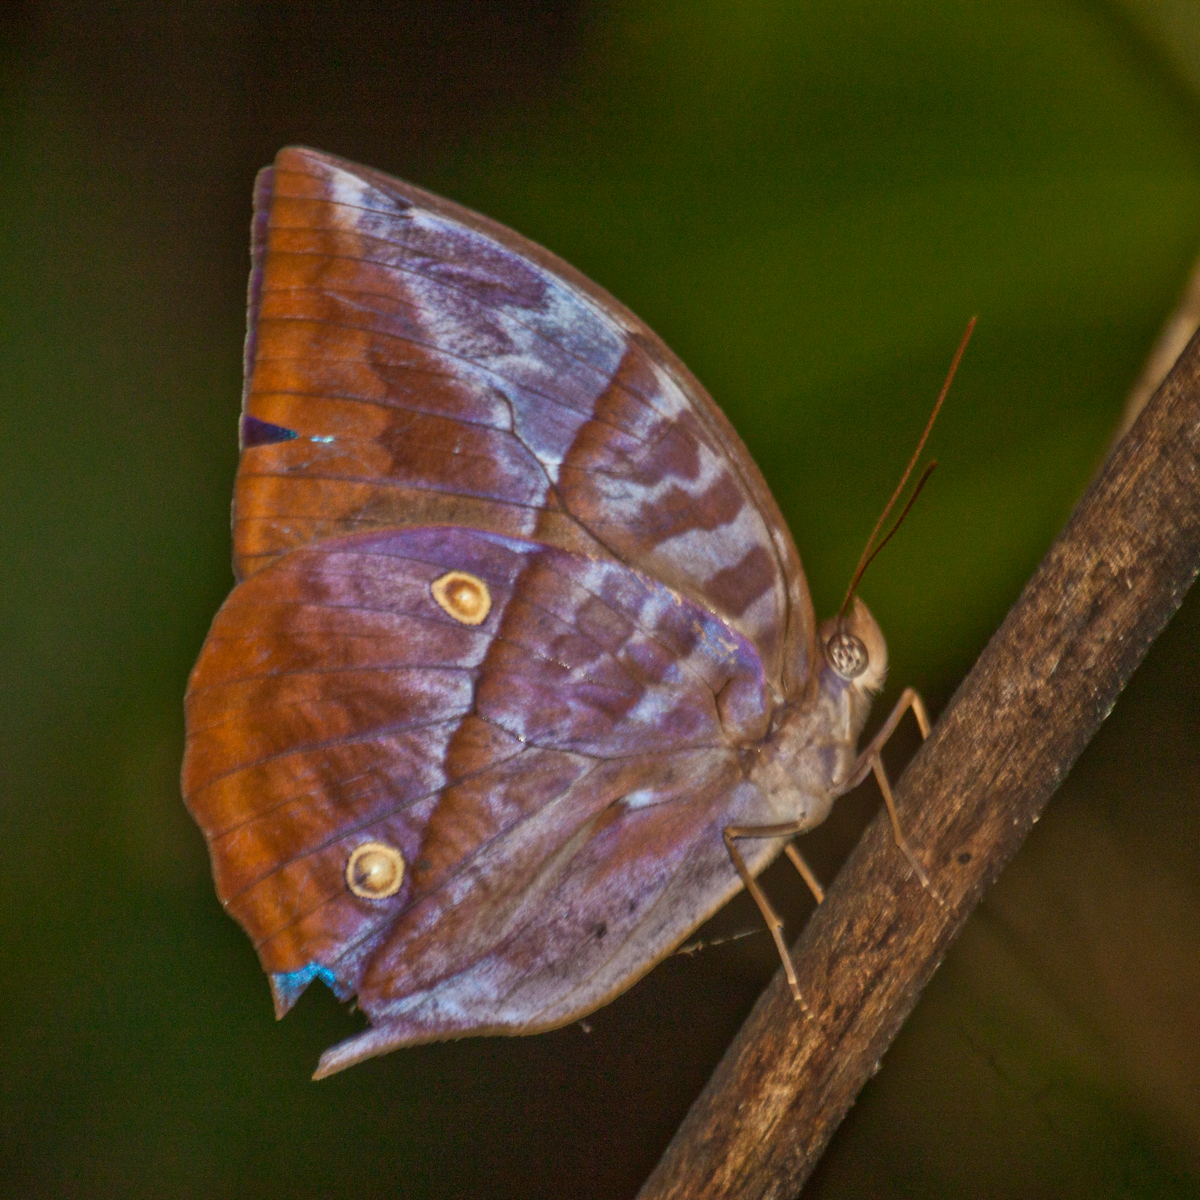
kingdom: Animalia
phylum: Arthropoda
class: Insecta
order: Lepidoptera
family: Nymphalidae
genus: Zeuxidia
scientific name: Zeuxidia
